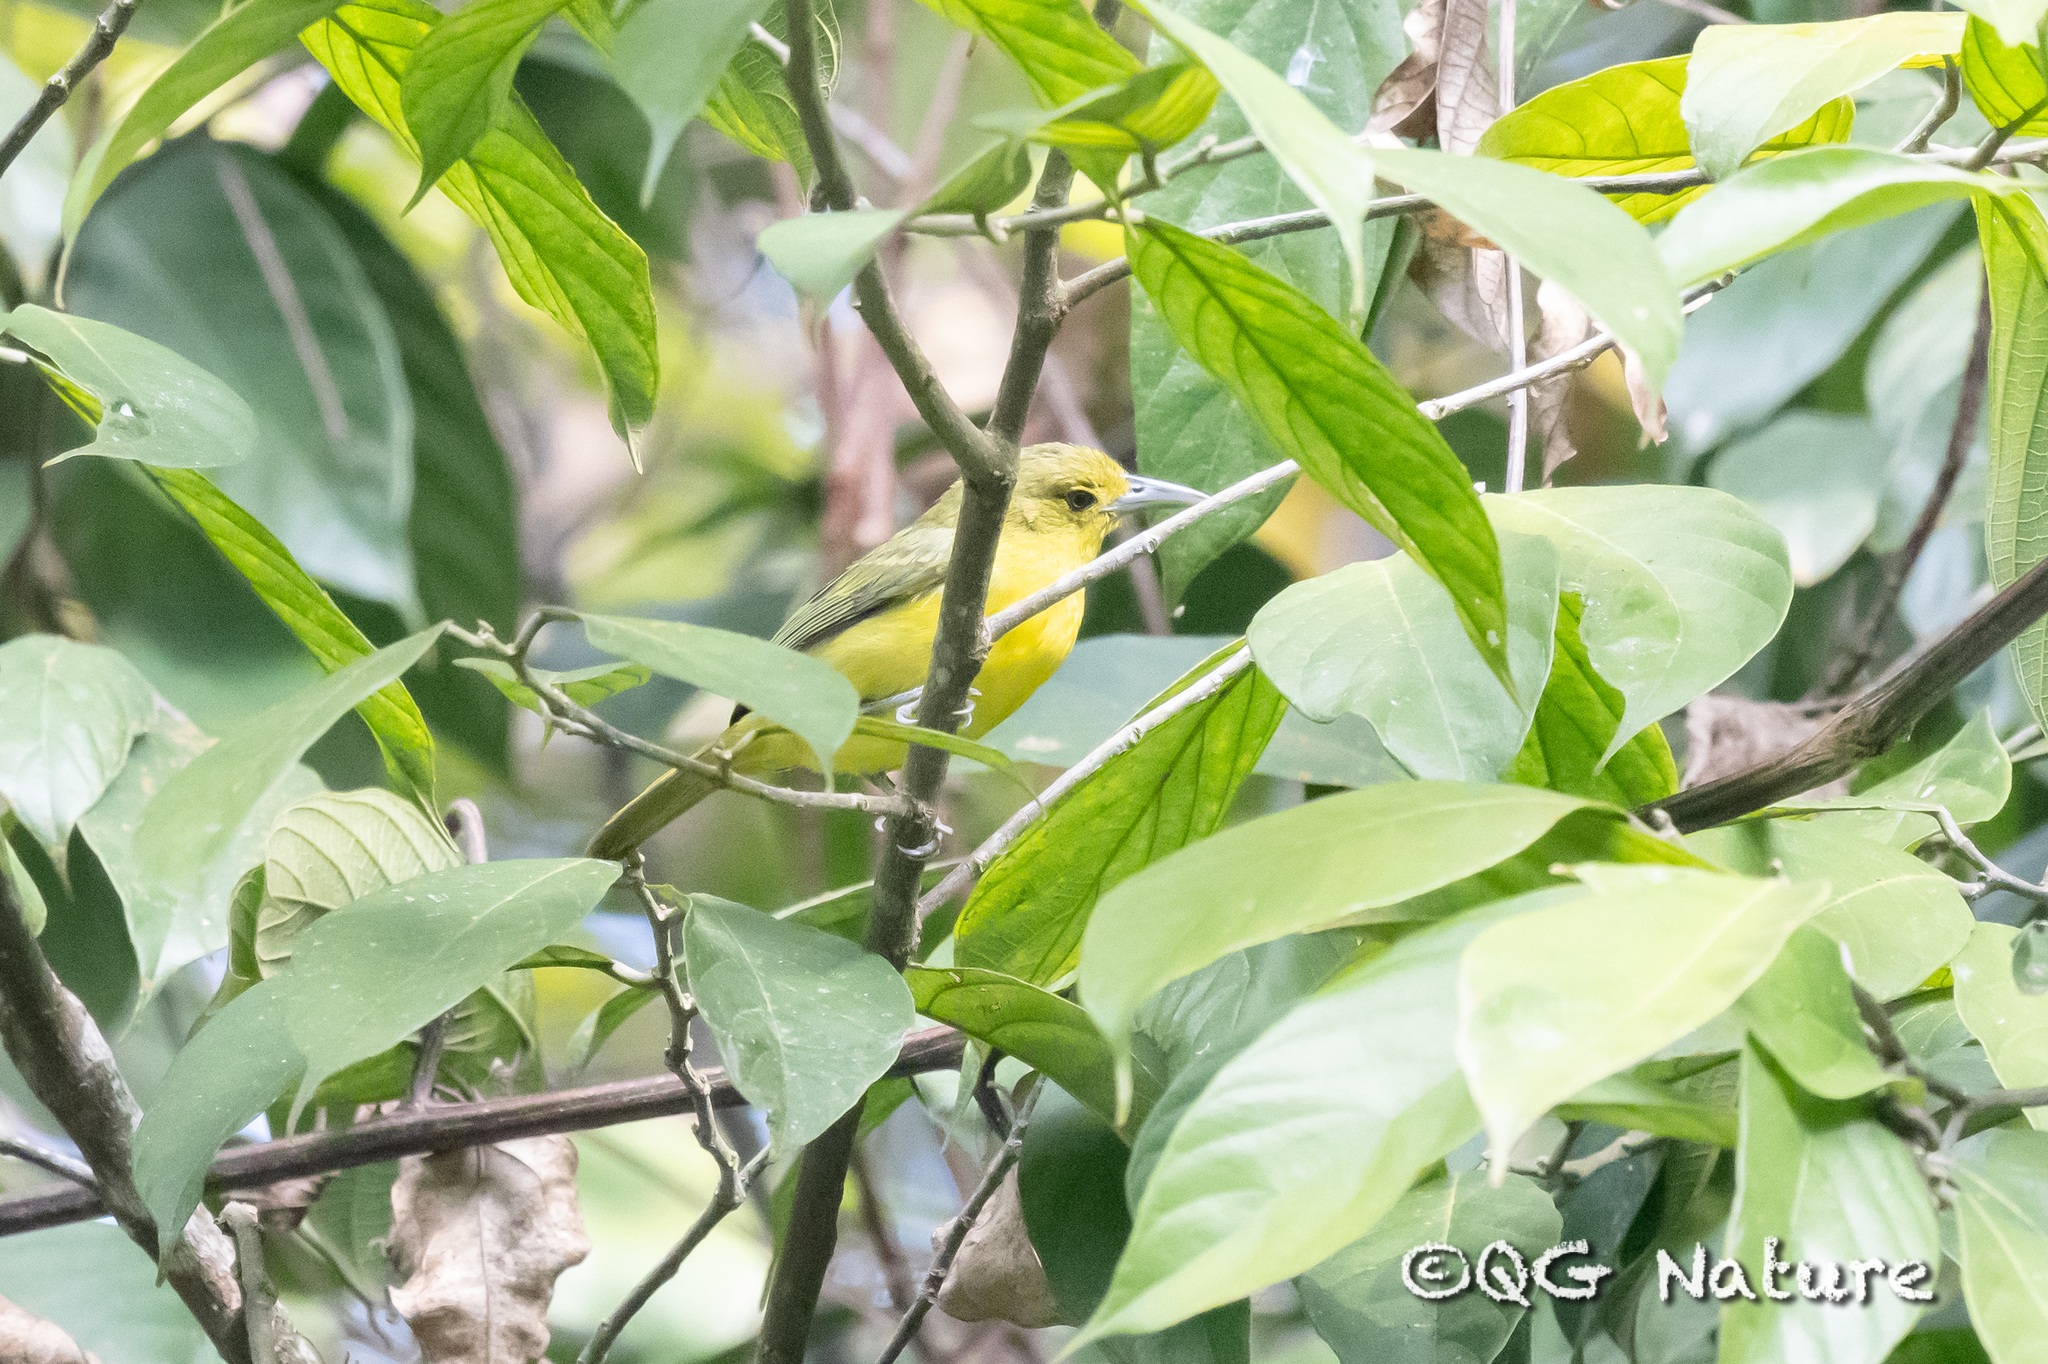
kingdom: Animalia
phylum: Chordata
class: Aves
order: Passeriformes
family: Aegithinidae
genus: Aegithina
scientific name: Aegithina lafresnayei
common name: Great iora
